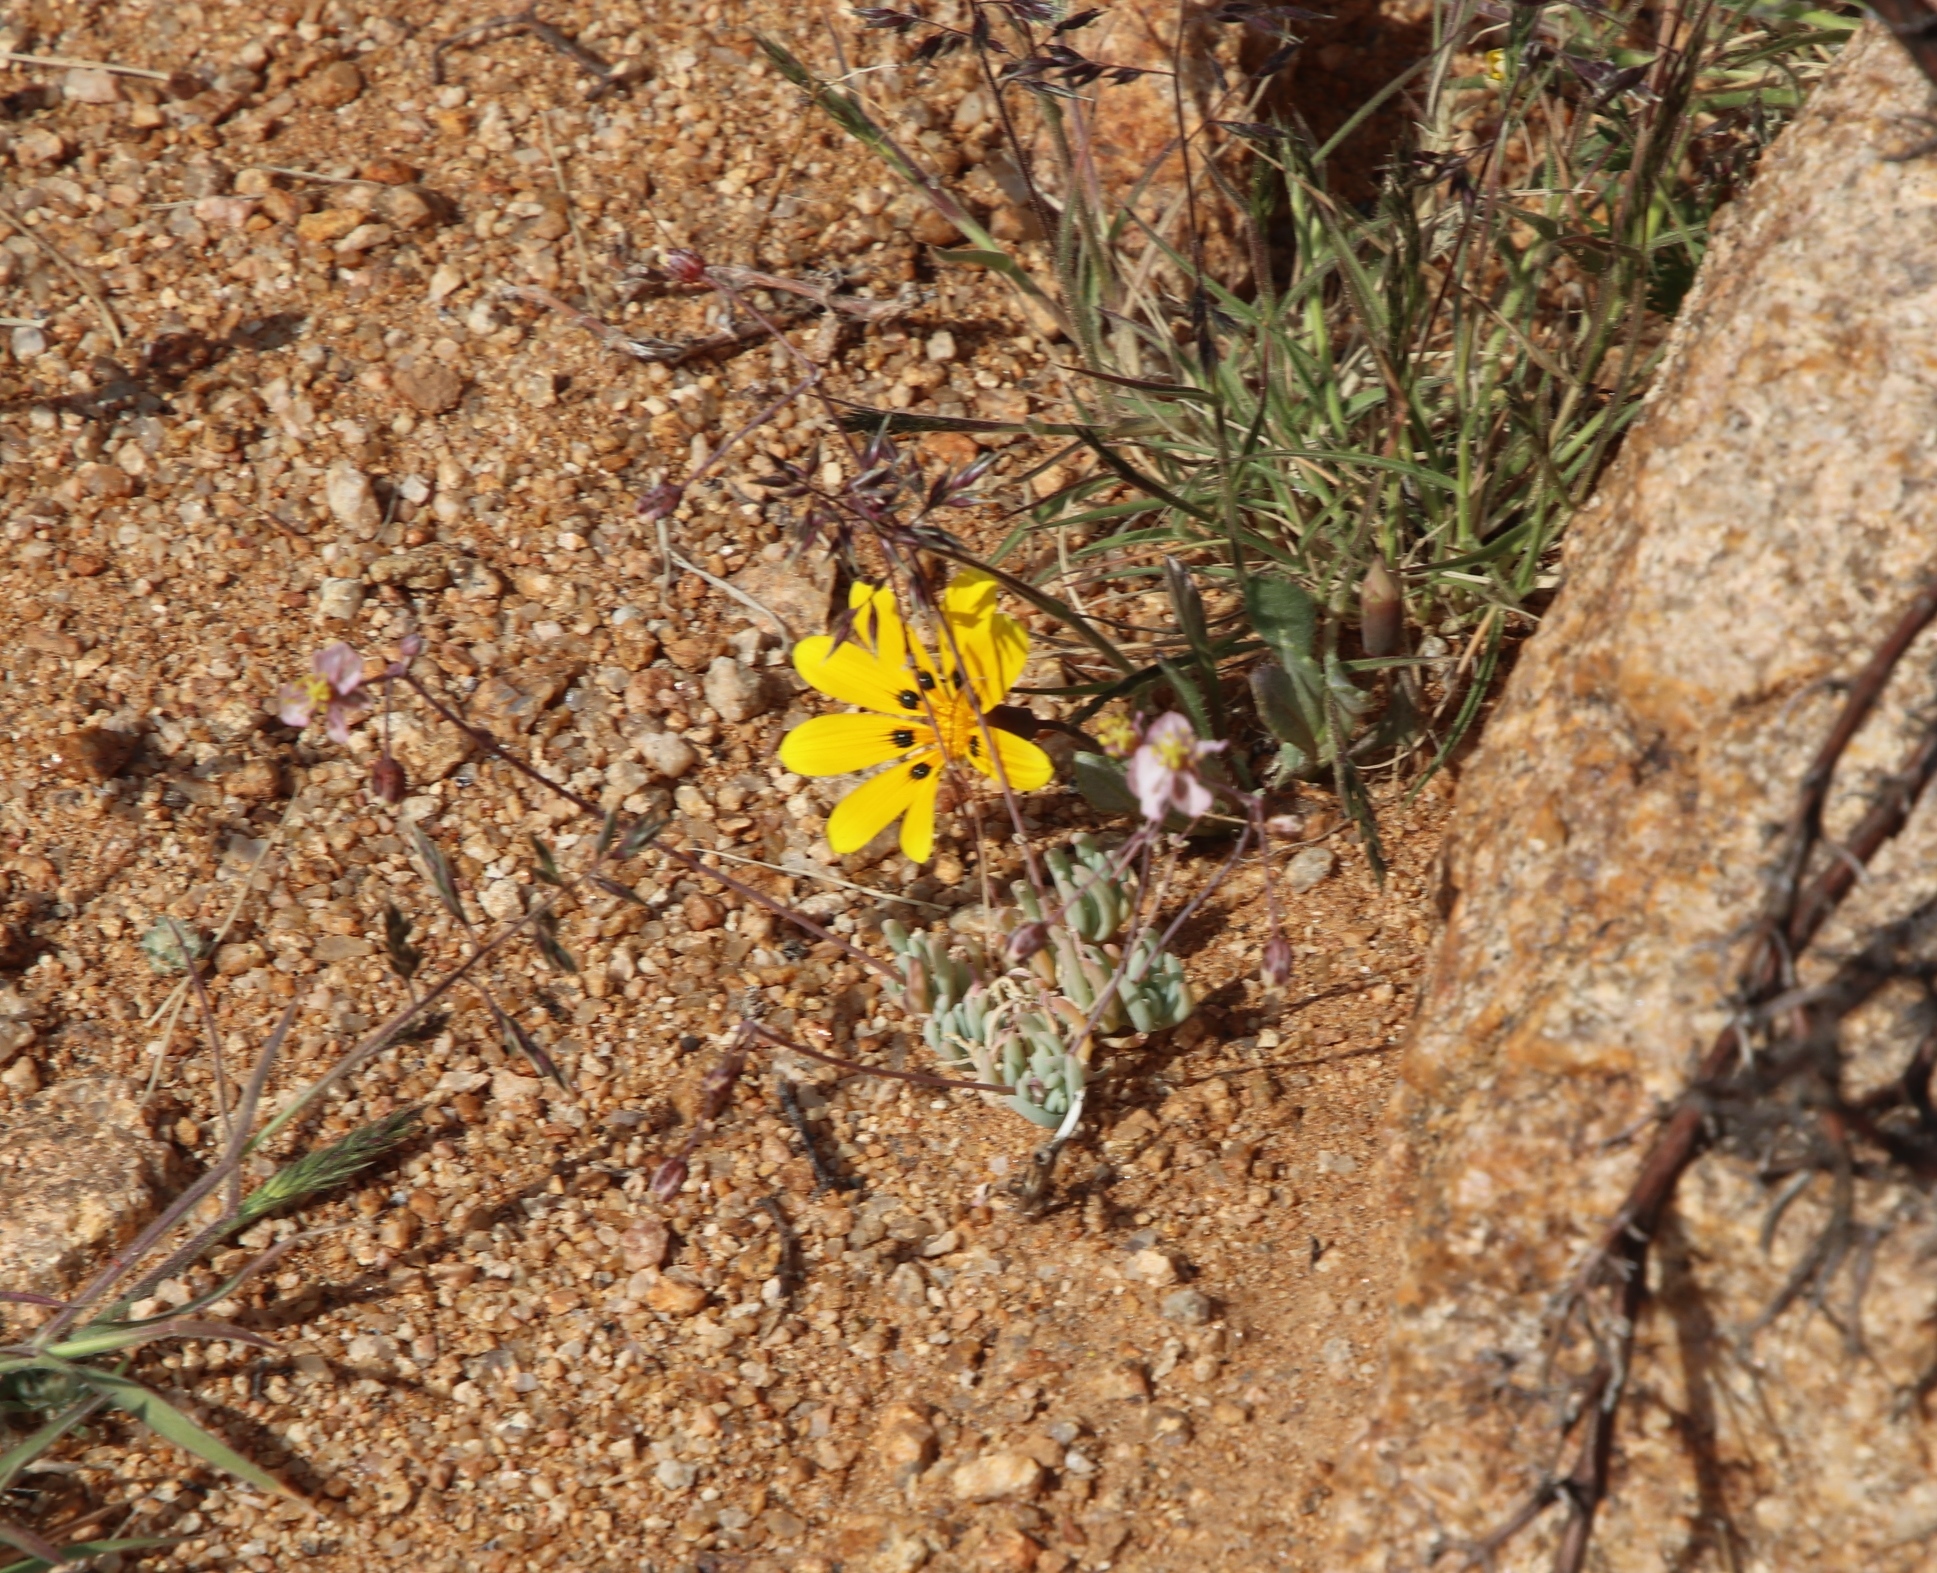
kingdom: Plantae
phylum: Tracheophyta
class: Magnoliopsida
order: Caryophyllales
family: Kewaceae
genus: Kewa
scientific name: Kewa salsoloides
